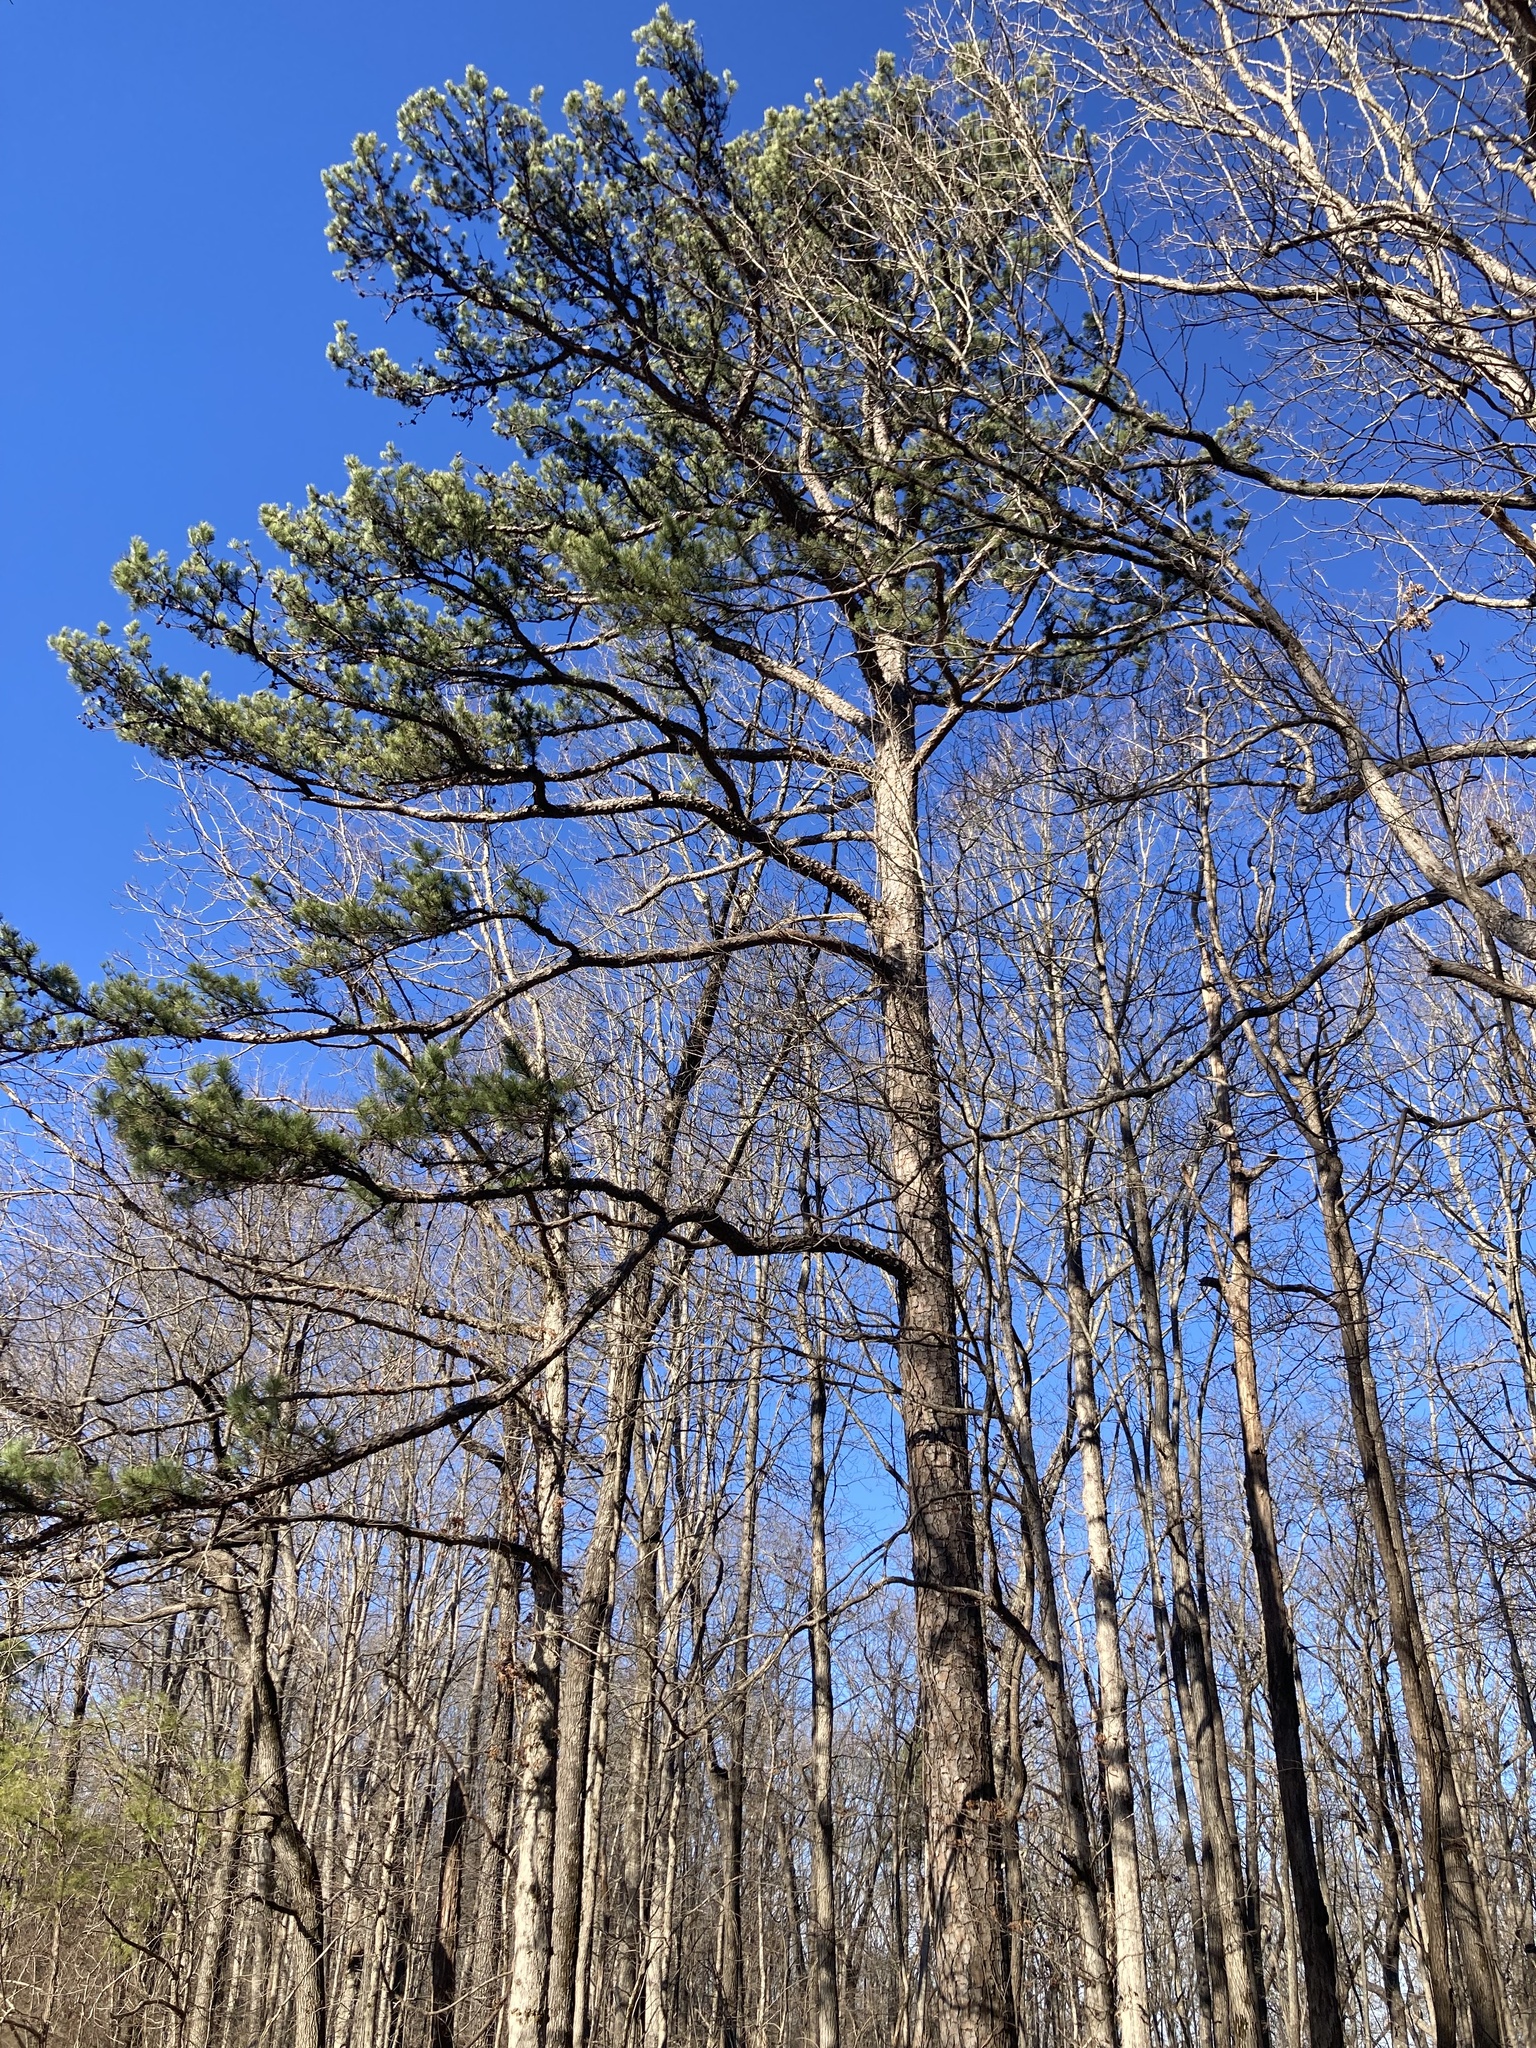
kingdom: Plantae
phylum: Tracheophyta
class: Pinopsida
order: Pinales
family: Pinaceae
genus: Pinus
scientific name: Pinus echinata
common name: Shortleaf pine
